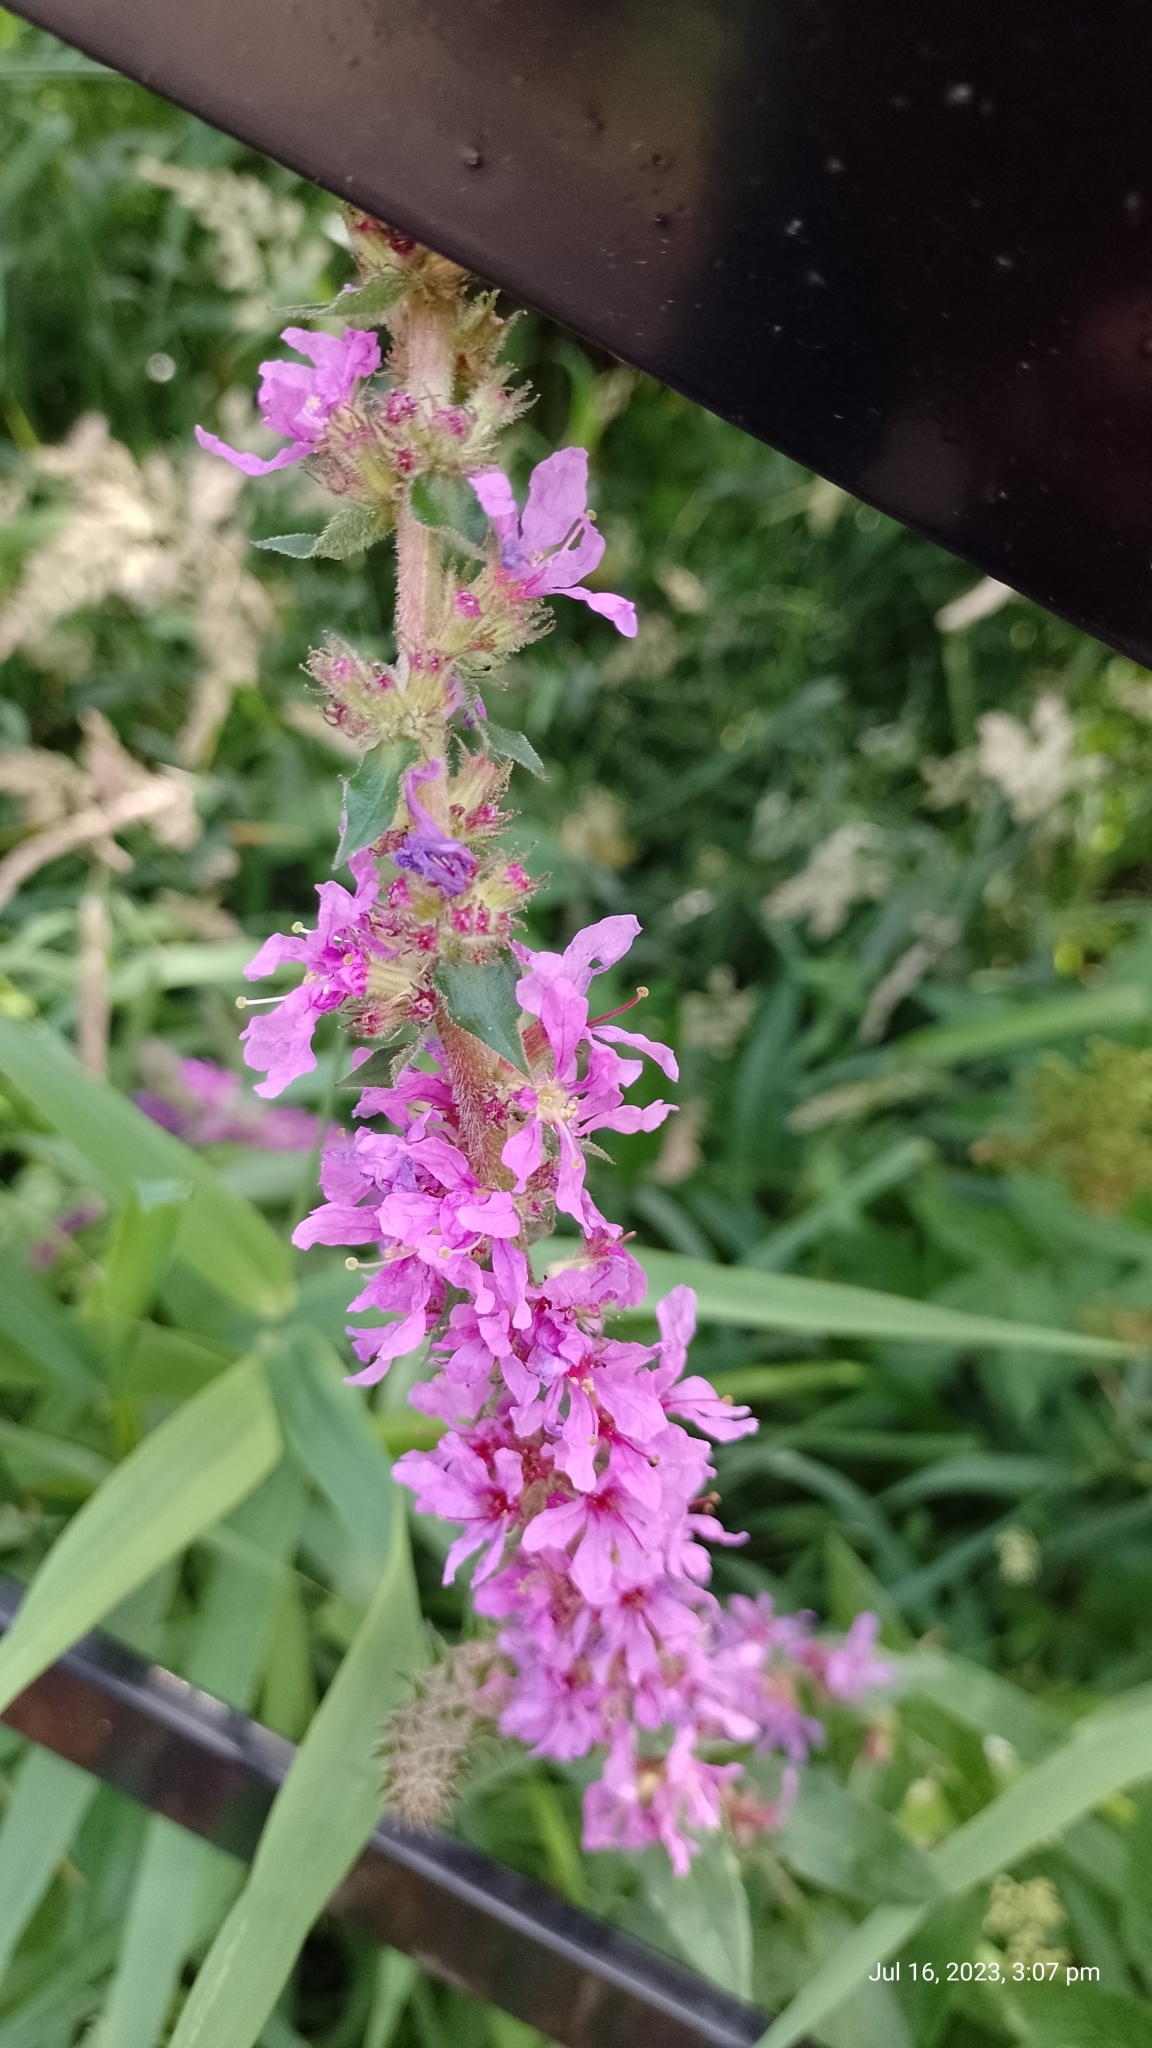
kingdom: Plantae
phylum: Tracheophyta
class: Magnoliopsida
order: Myrtales
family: Lythraceae
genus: Lythrum
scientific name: Lythrum salicaria
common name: Purple loosestrife
